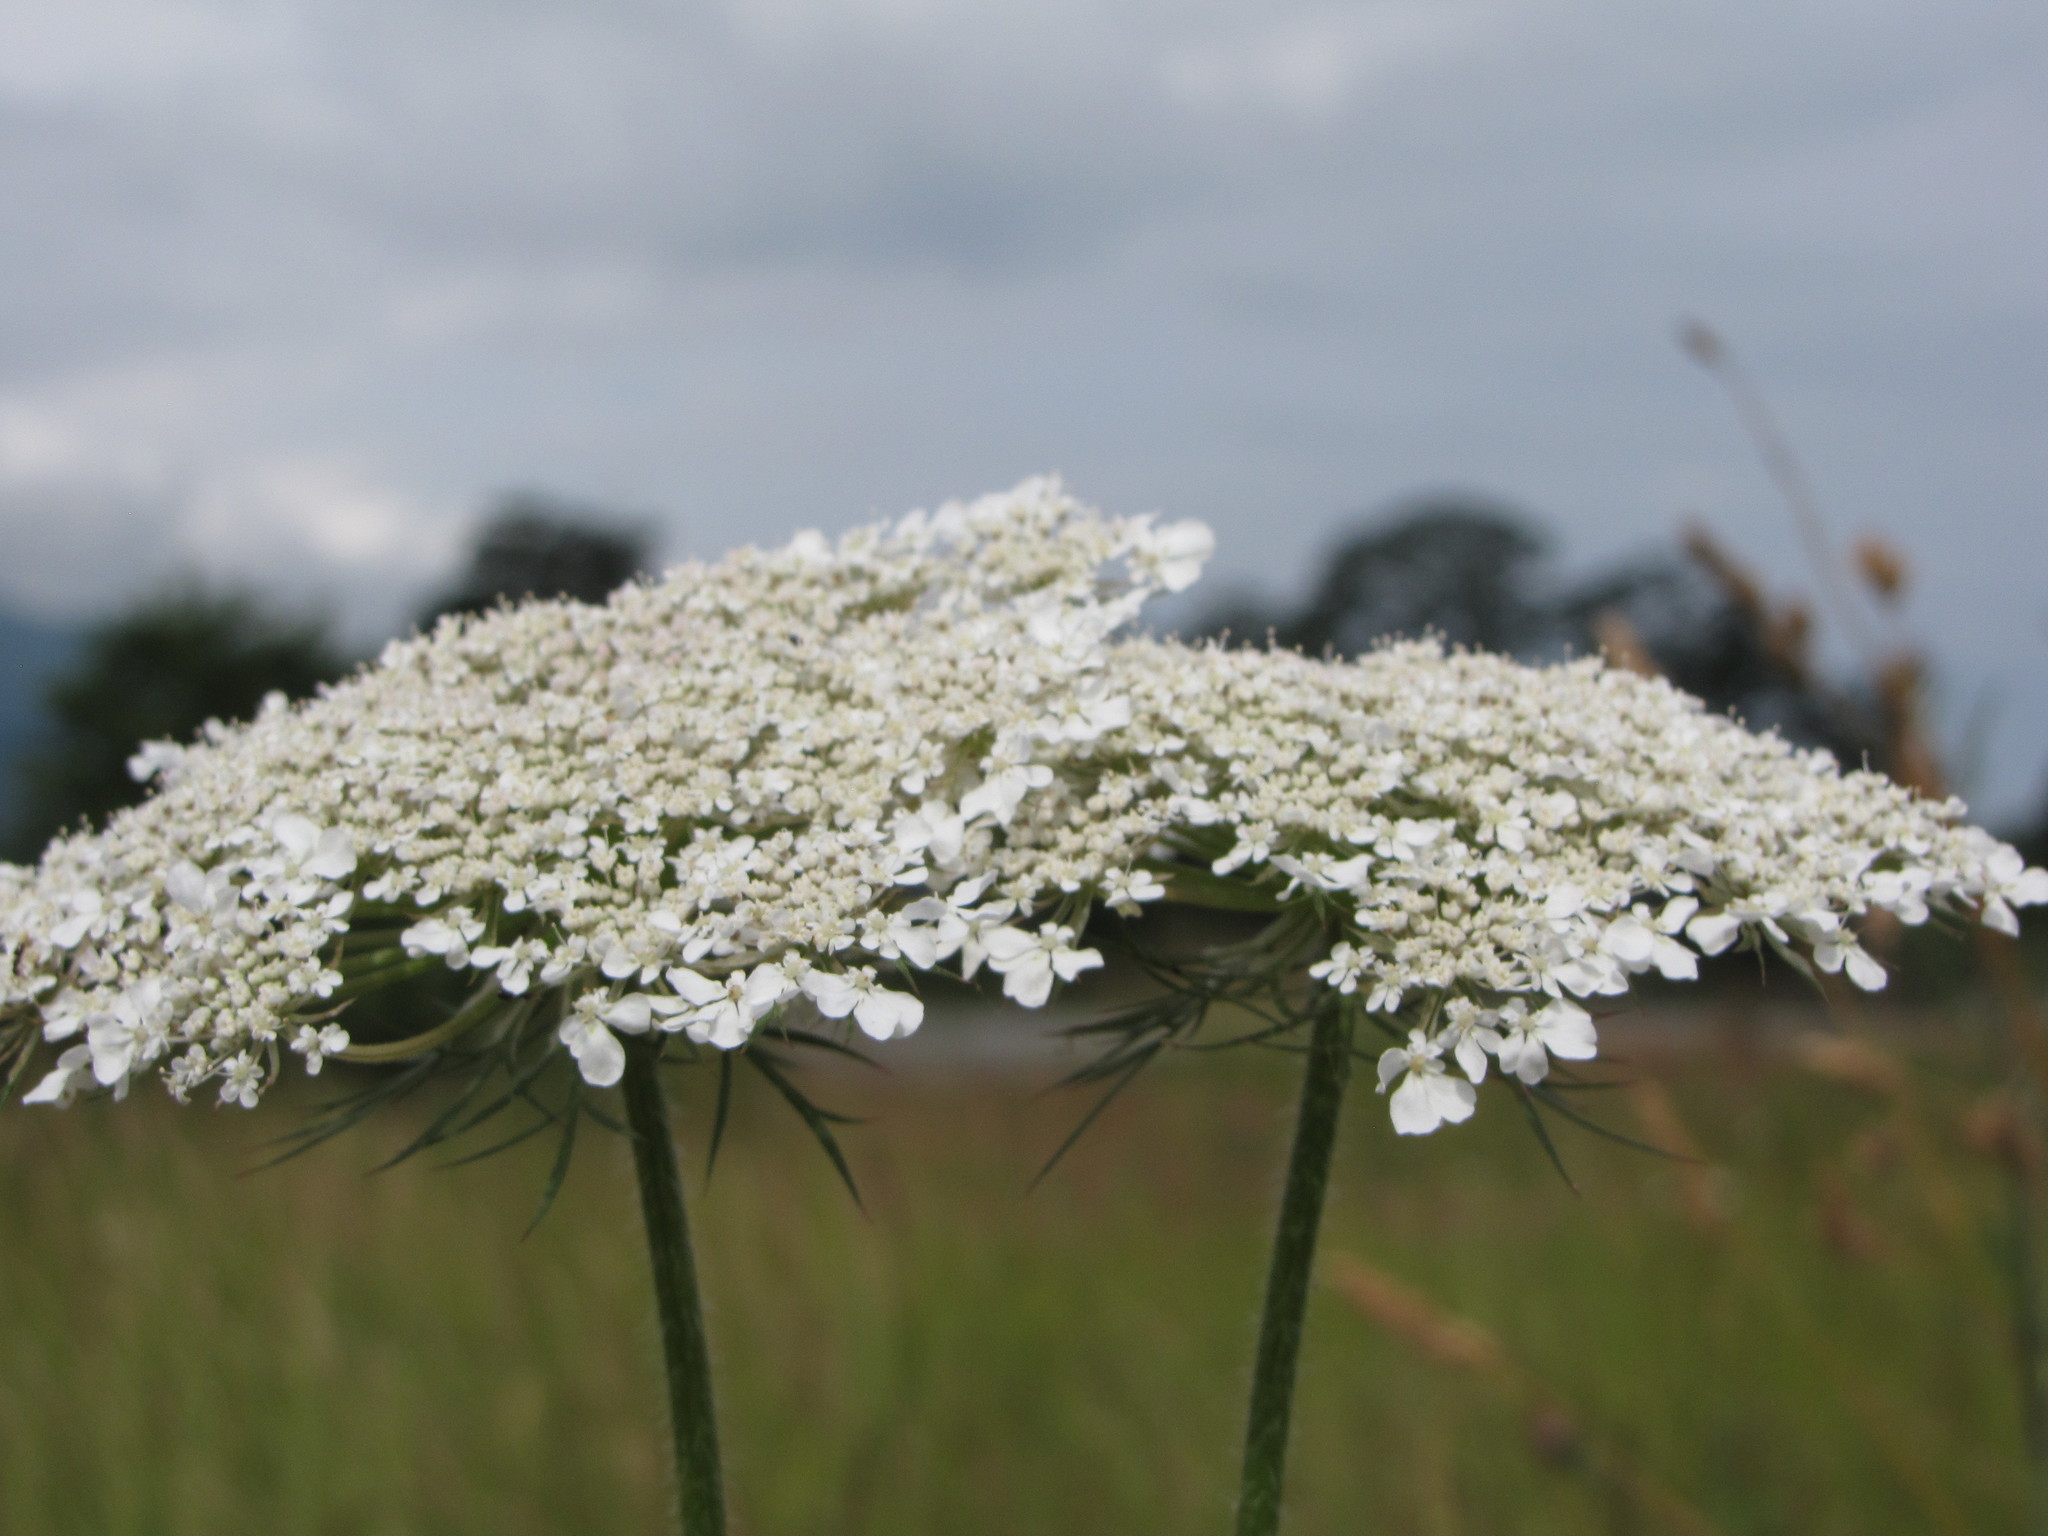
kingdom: Plantae
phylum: Tracheophyta
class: Magnoliopsida
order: Apiales
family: Apiaceae
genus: Daucus
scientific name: Daucus carota
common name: Wild carrot
